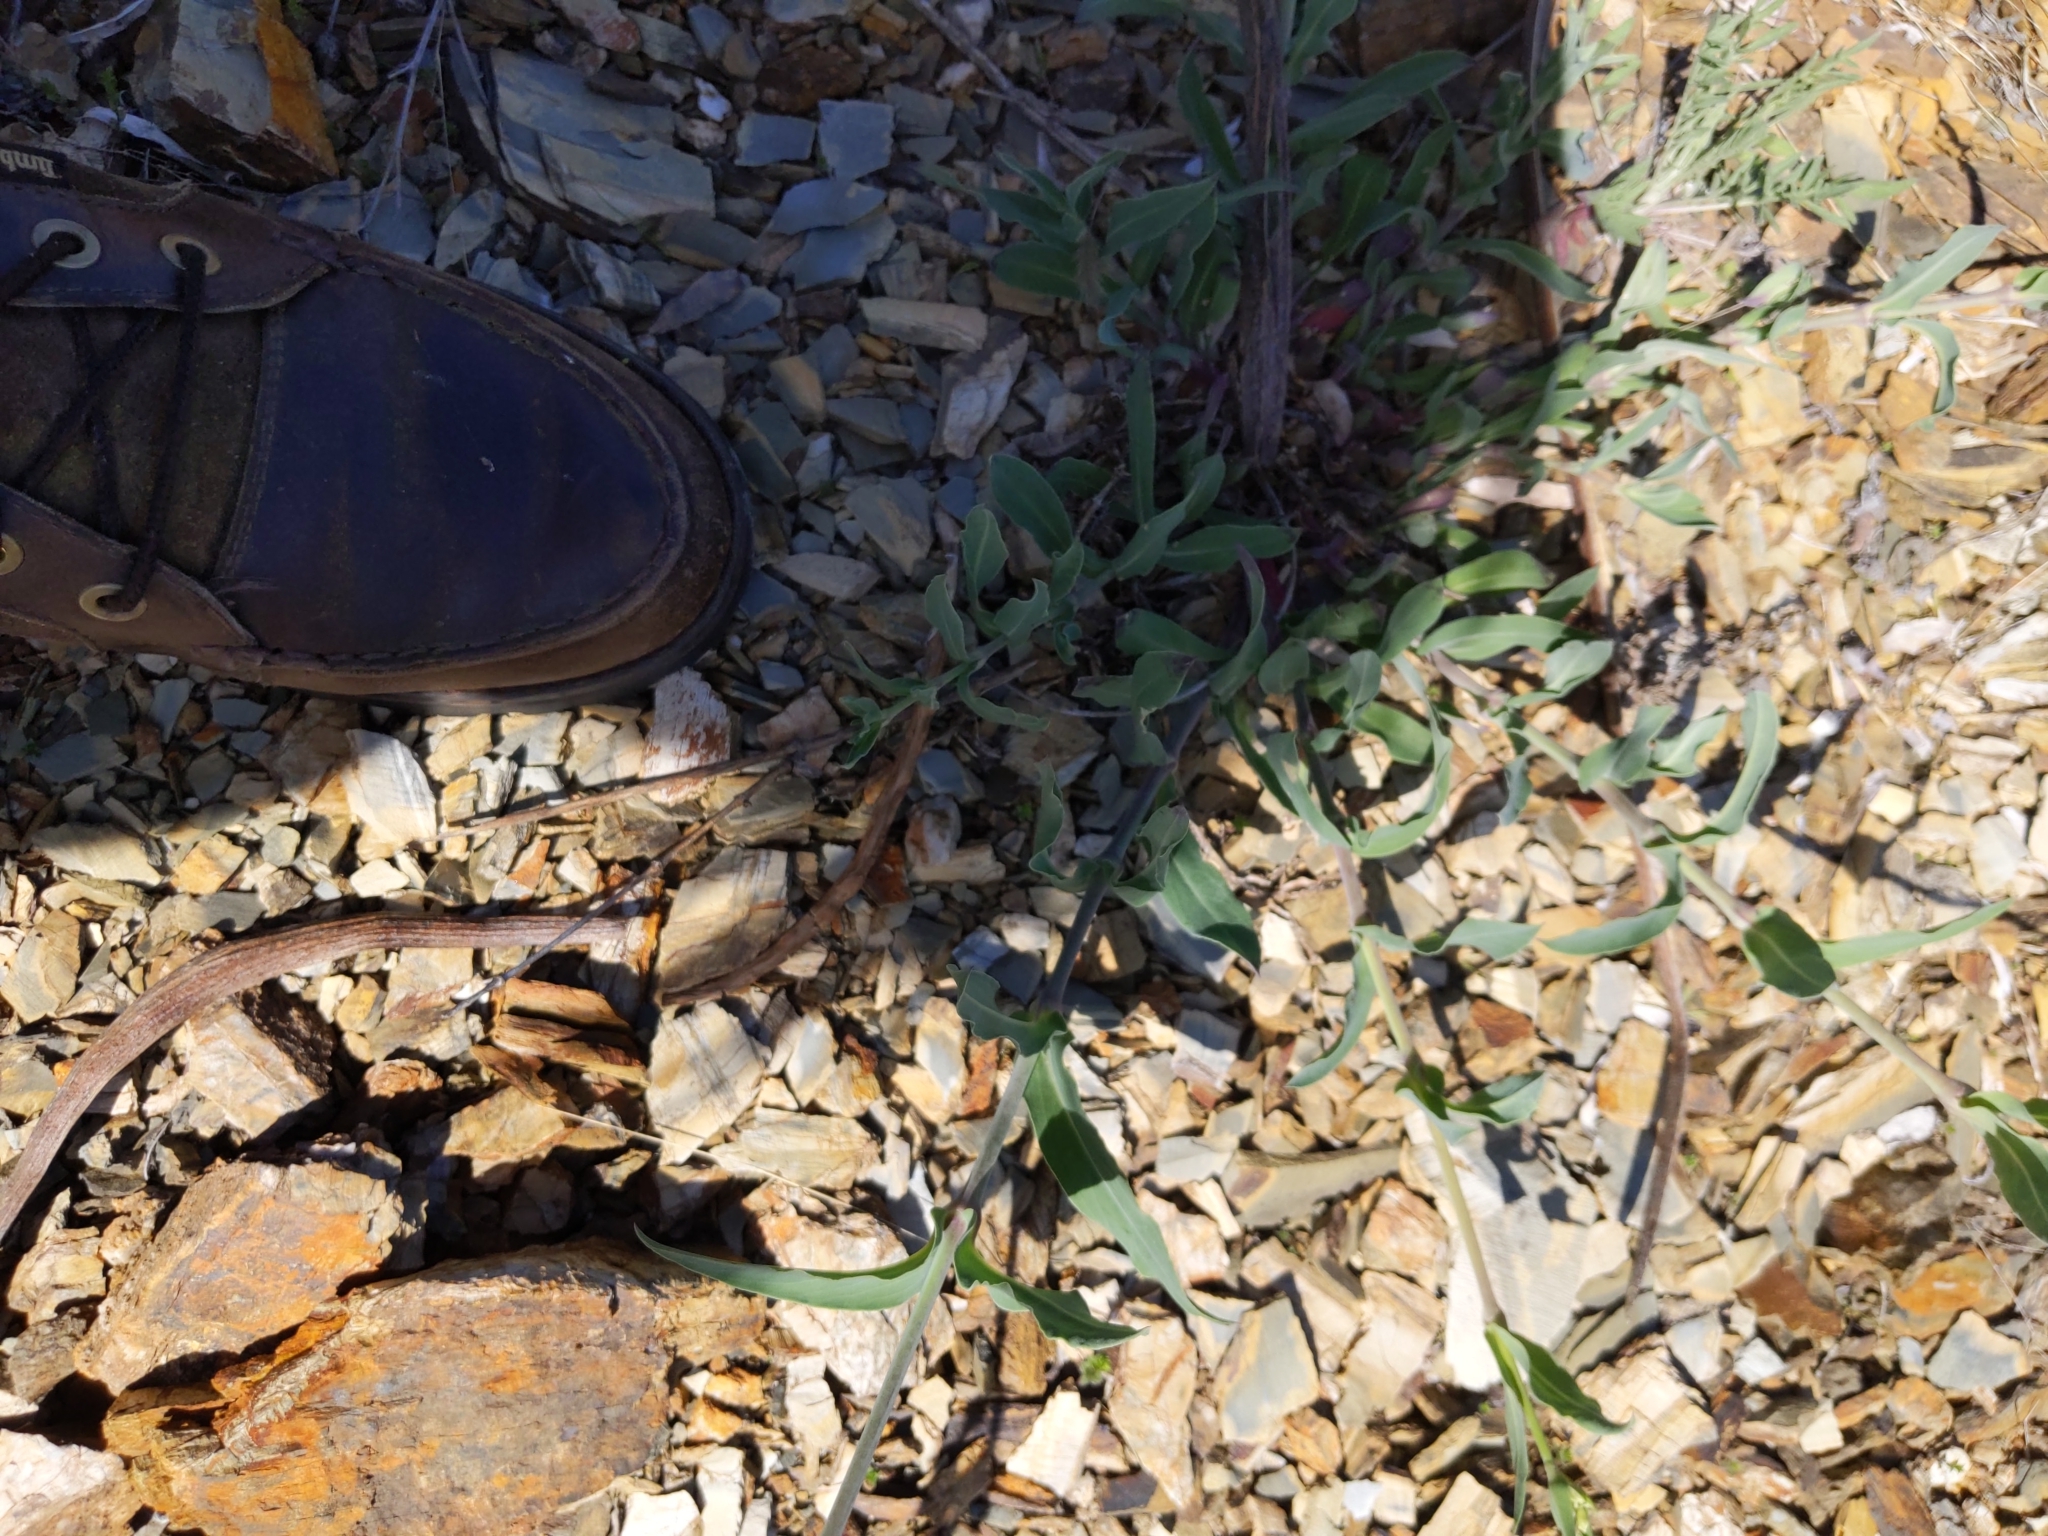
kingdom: Plantae
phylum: Tracheophyta
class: Magnoliopsida
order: Caryophyllales
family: Caryophyllaceae
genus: Holosteum
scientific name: Holosteum umbellatum
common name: Jagged chickweed
